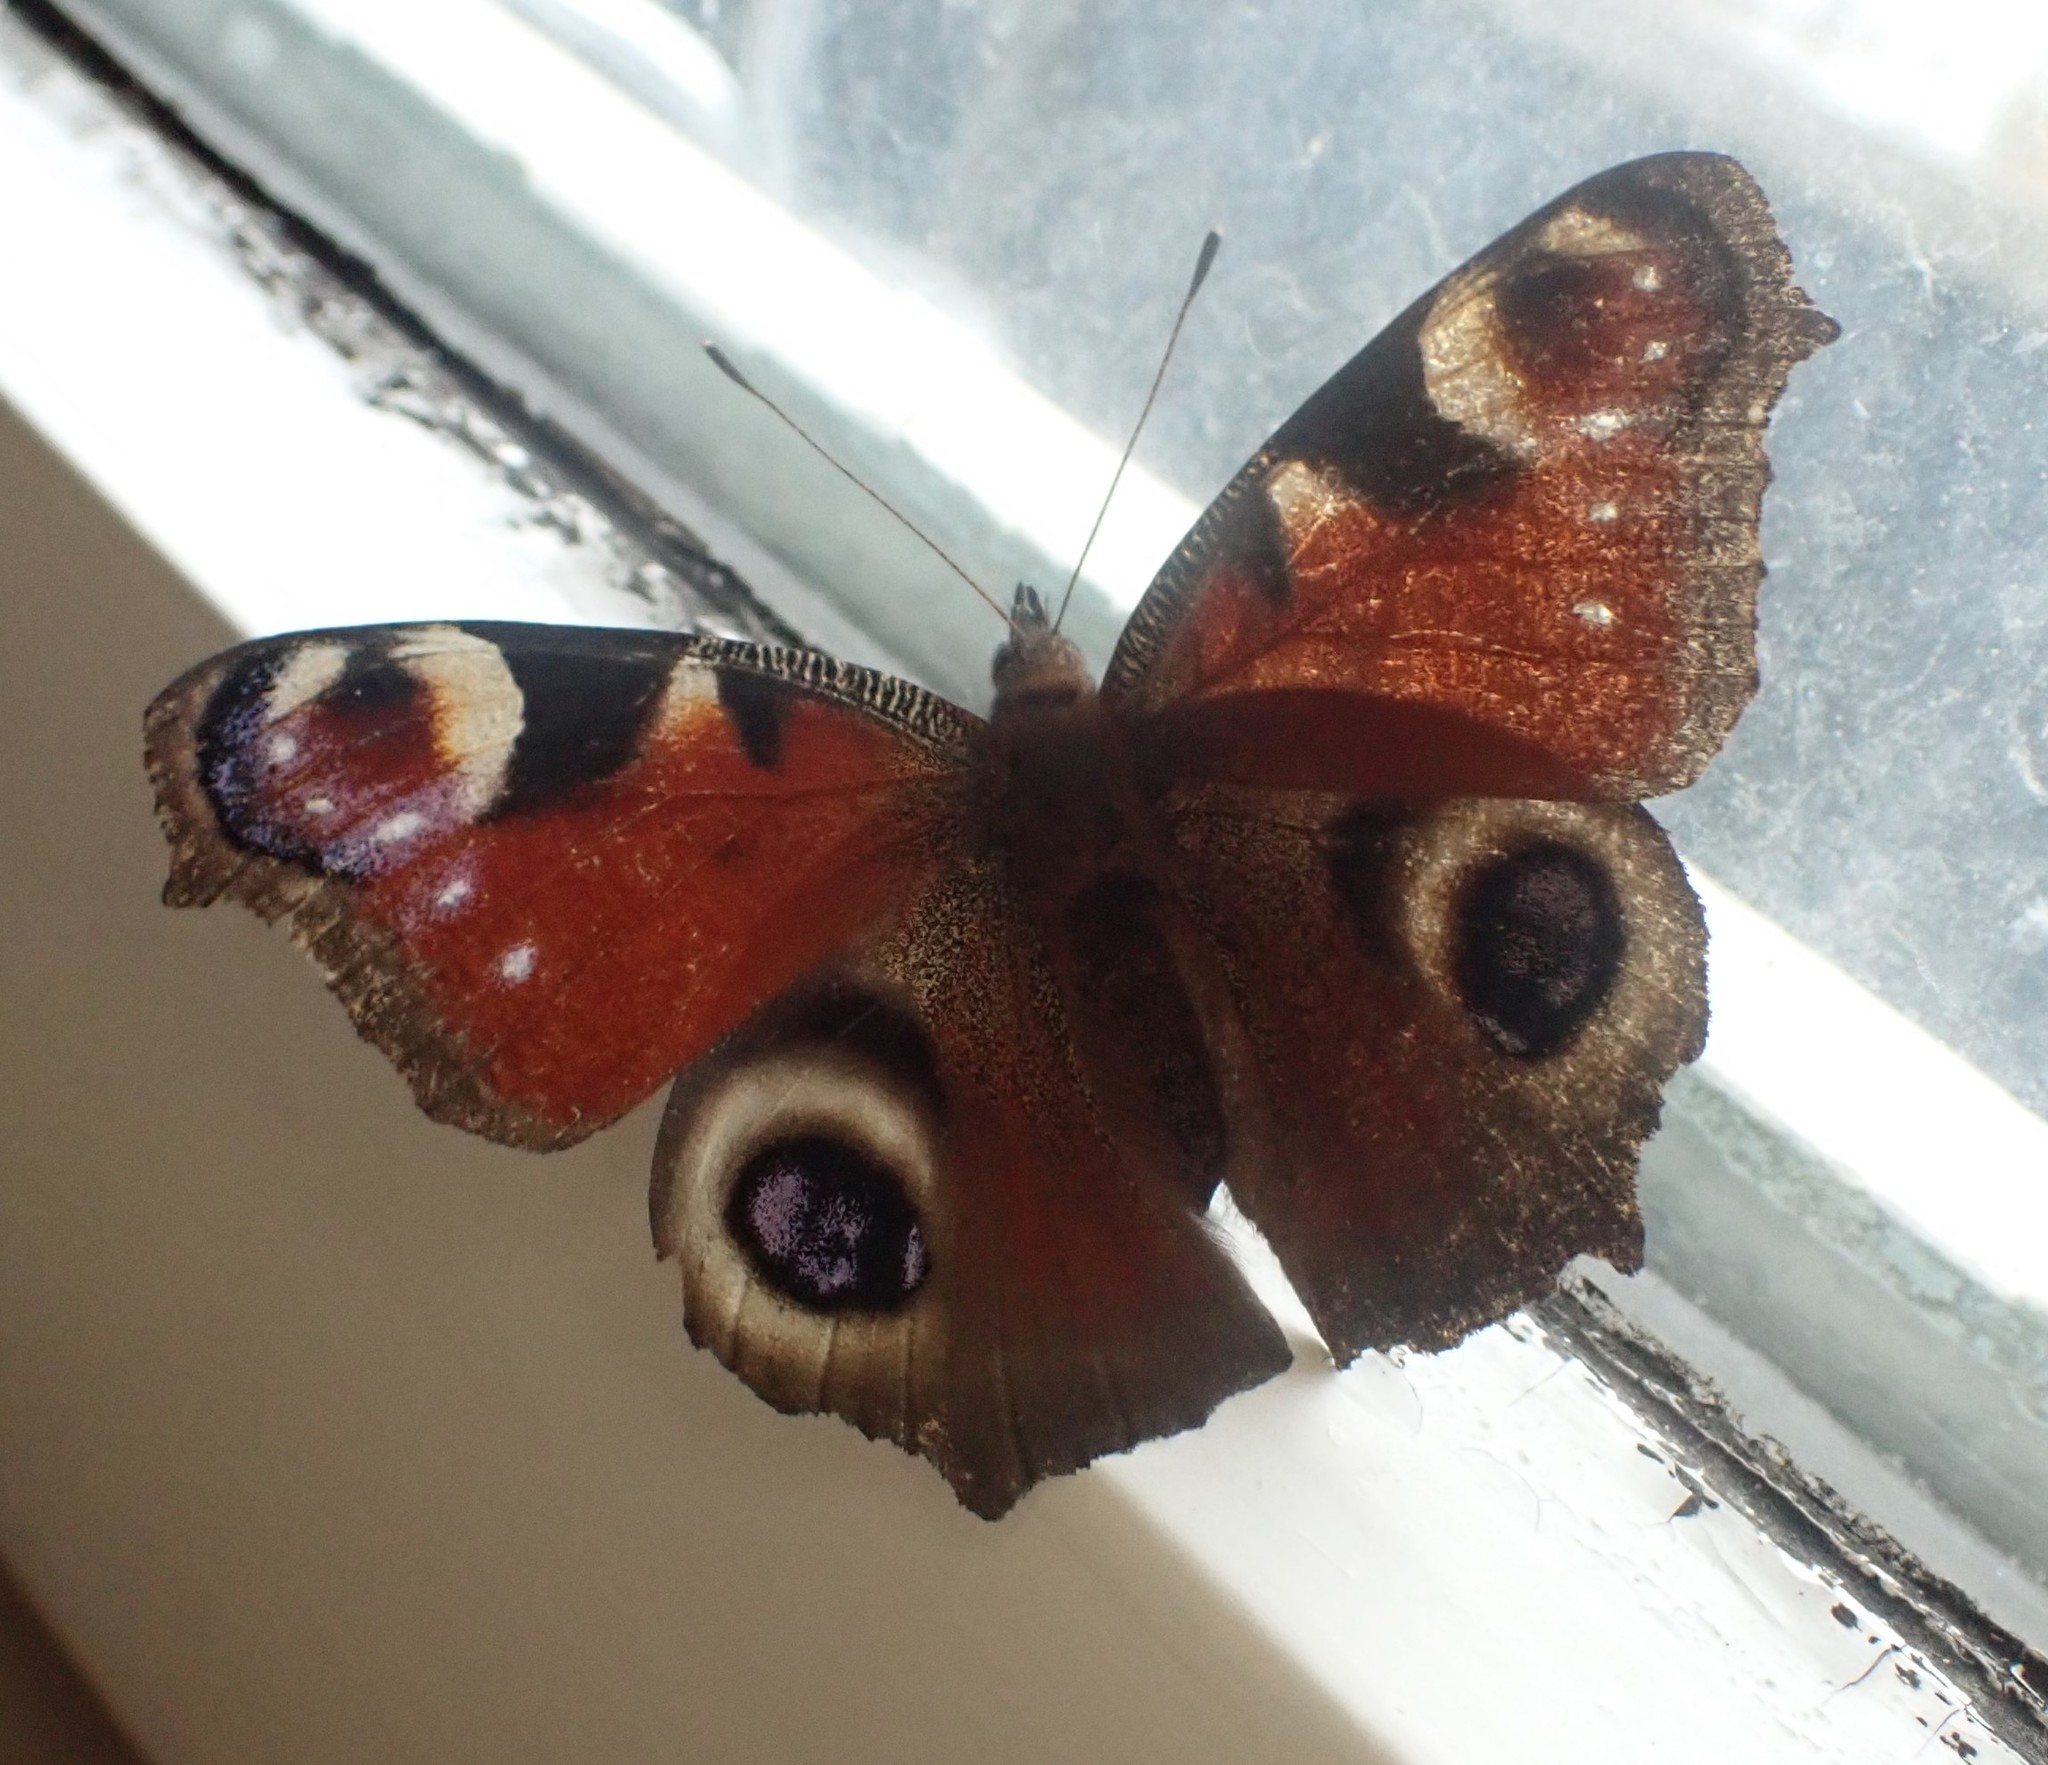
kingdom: Animalia
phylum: Arthropoda
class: Insecta
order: Lepidoptera
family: Nymphalidae
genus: Aglais
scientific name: Aglais io
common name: Peacock
